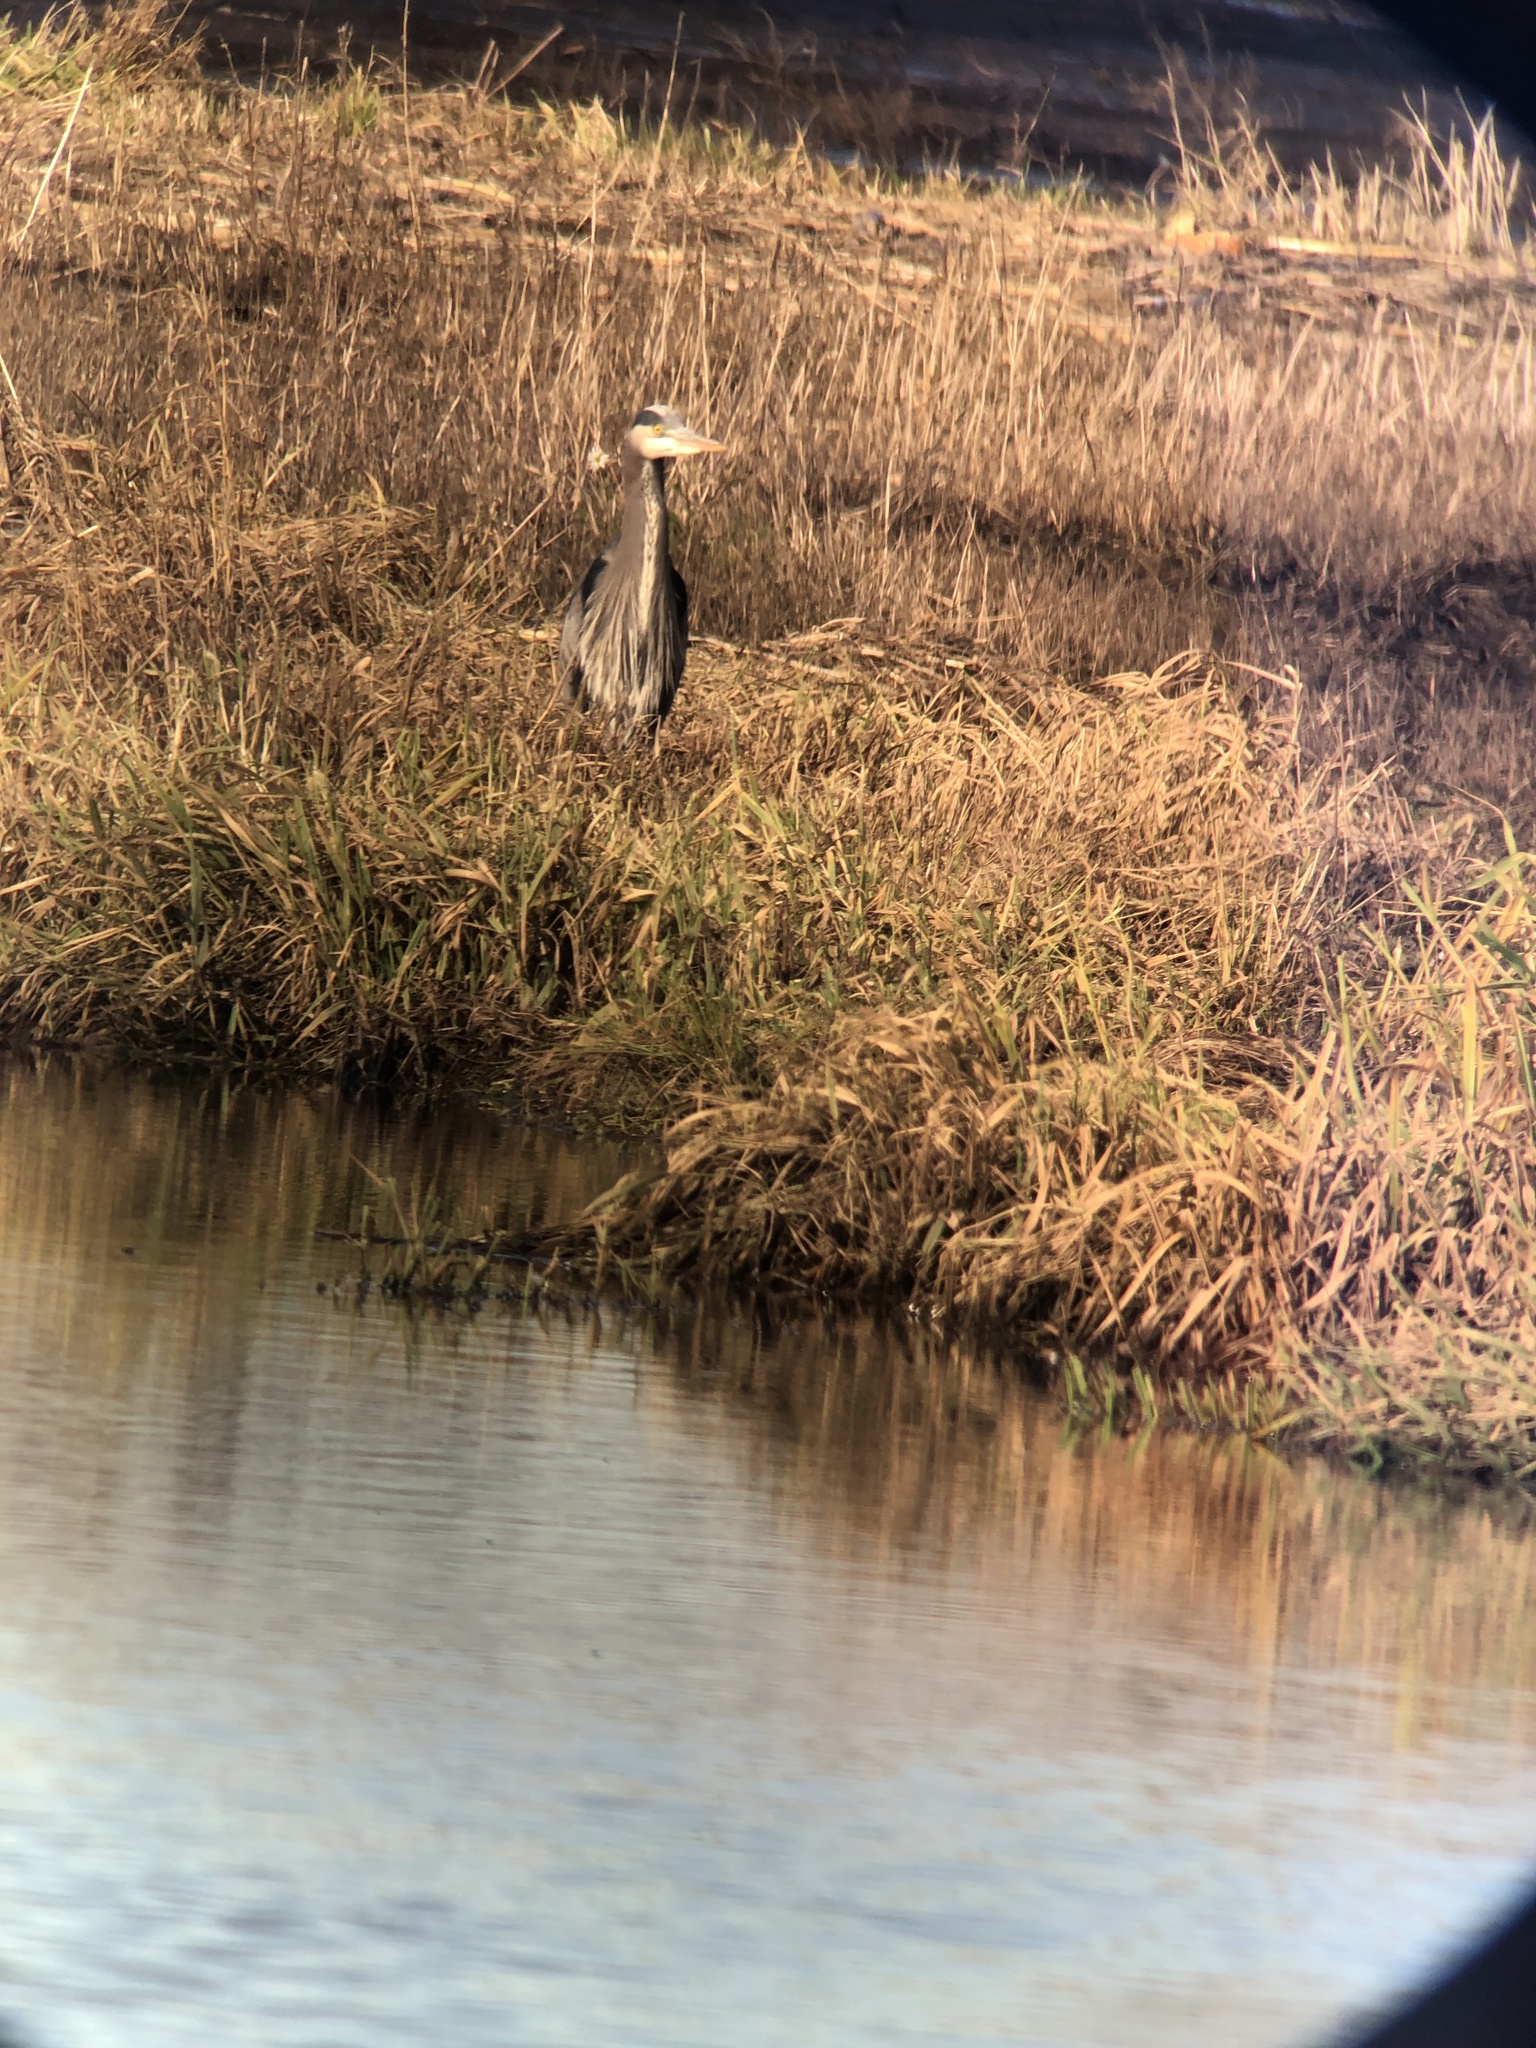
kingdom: Animalia
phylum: Chordata
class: Aves
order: Pelecaniformes
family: Ardeidae
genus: Ardea
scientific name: Ardea herodias
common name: Great blue heron
